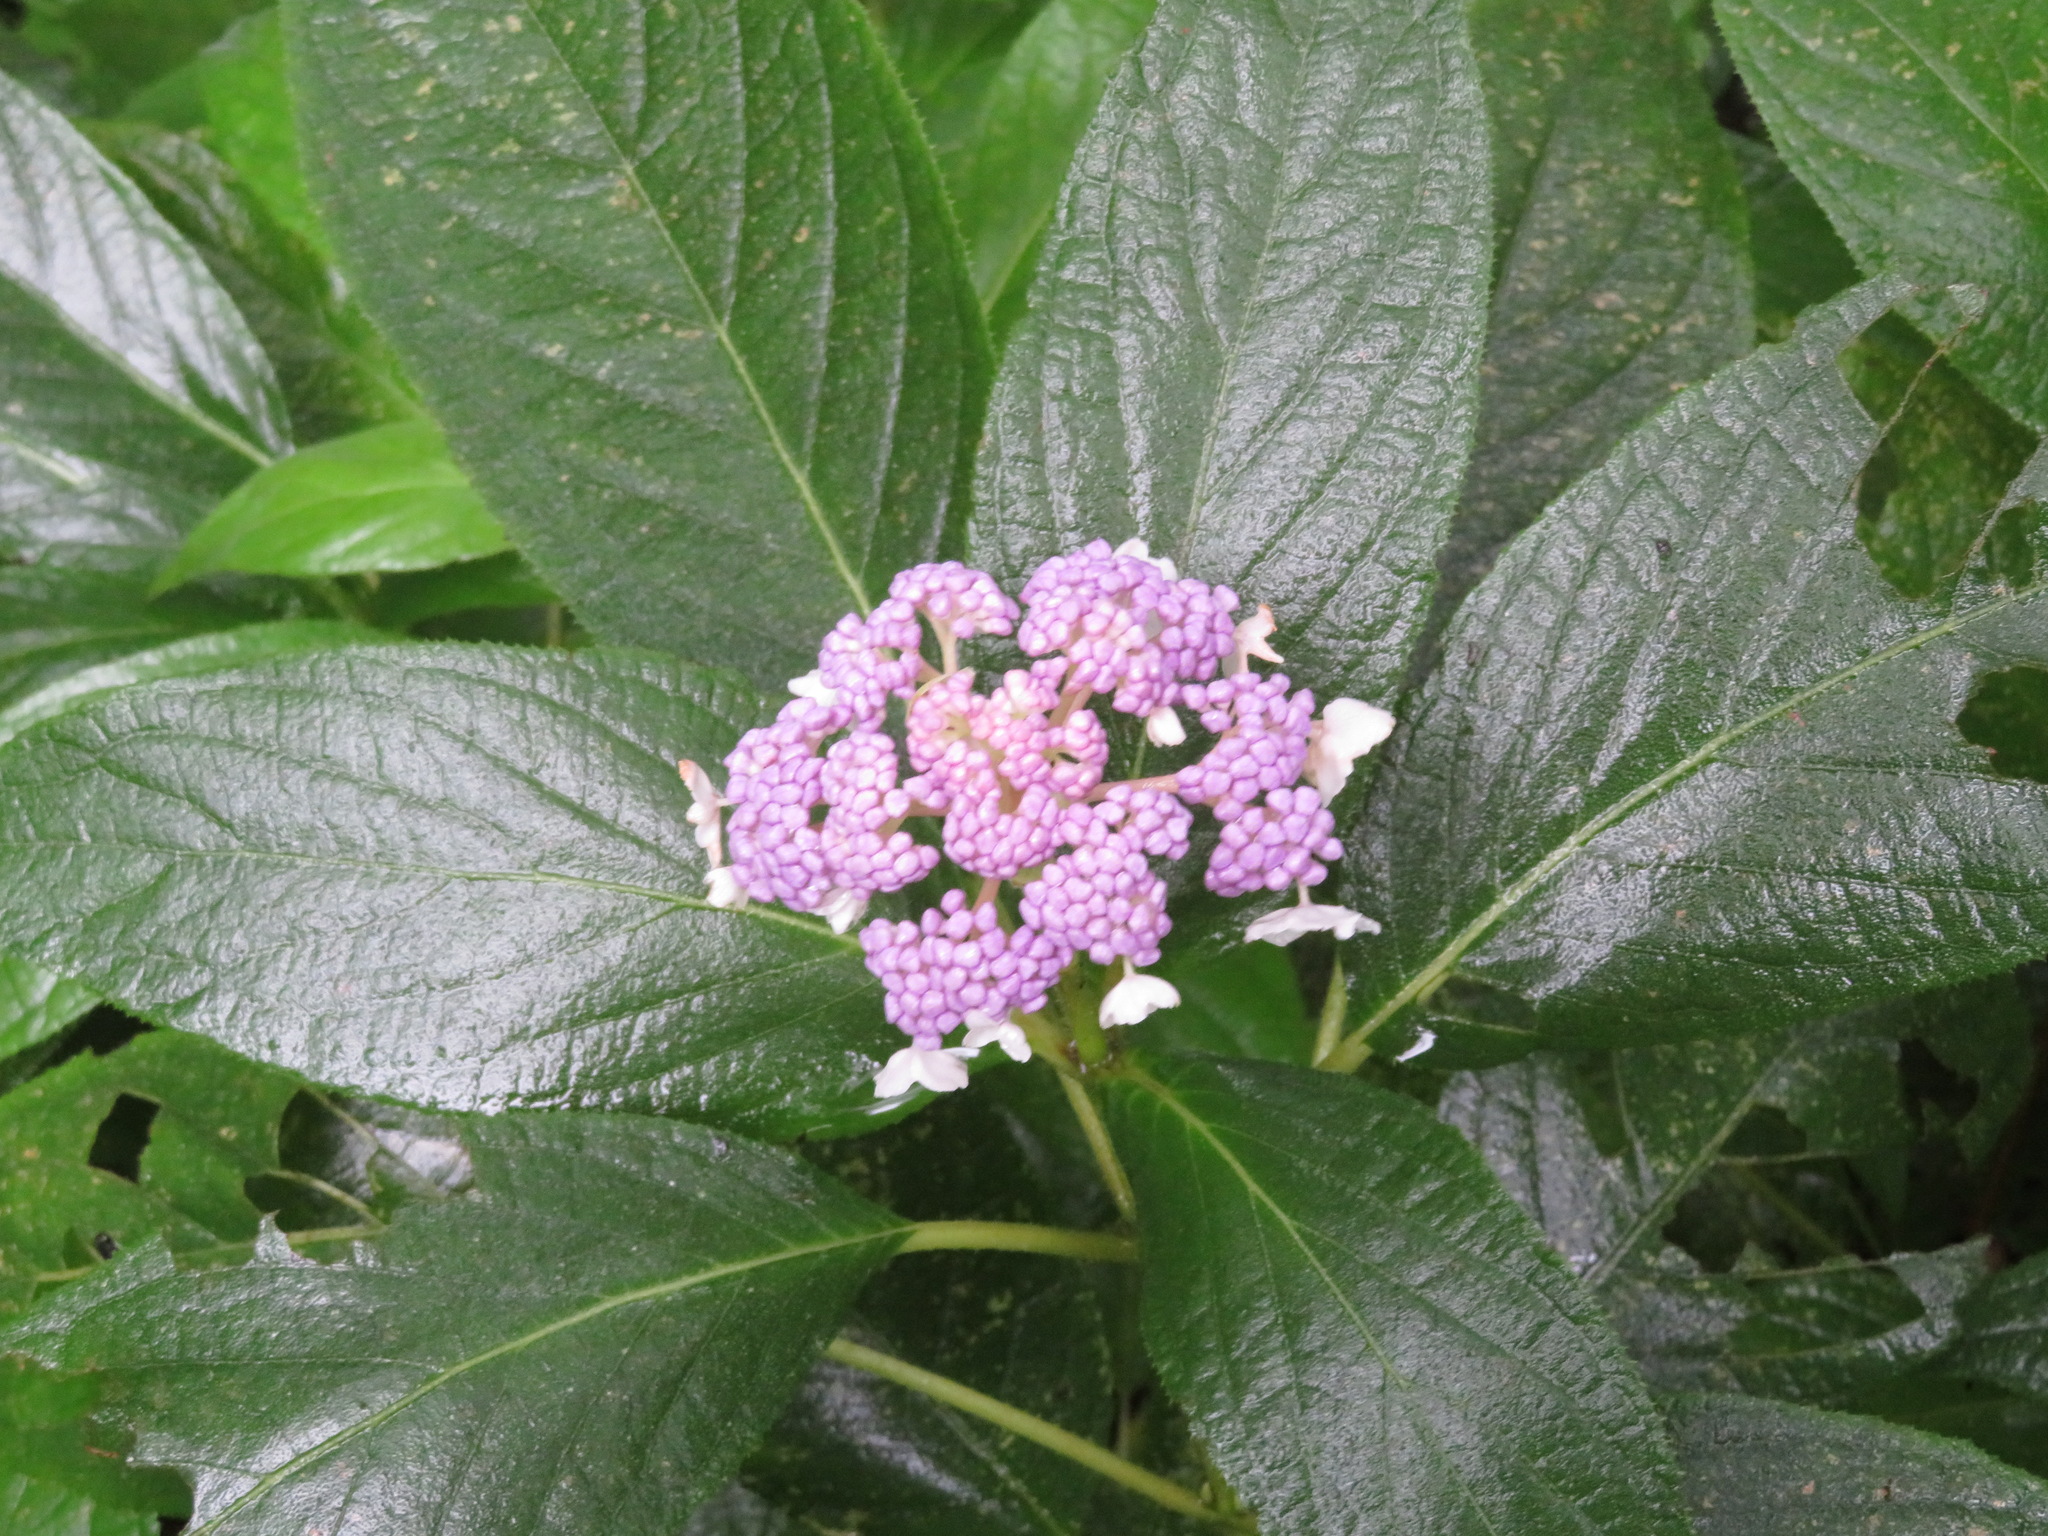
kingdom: Plantae
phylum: Tracheophyta
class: Magnoliopsida
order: Cornales
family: Hydrangeaceae
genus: Hydrangea
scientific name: Hydrangea involucrata
